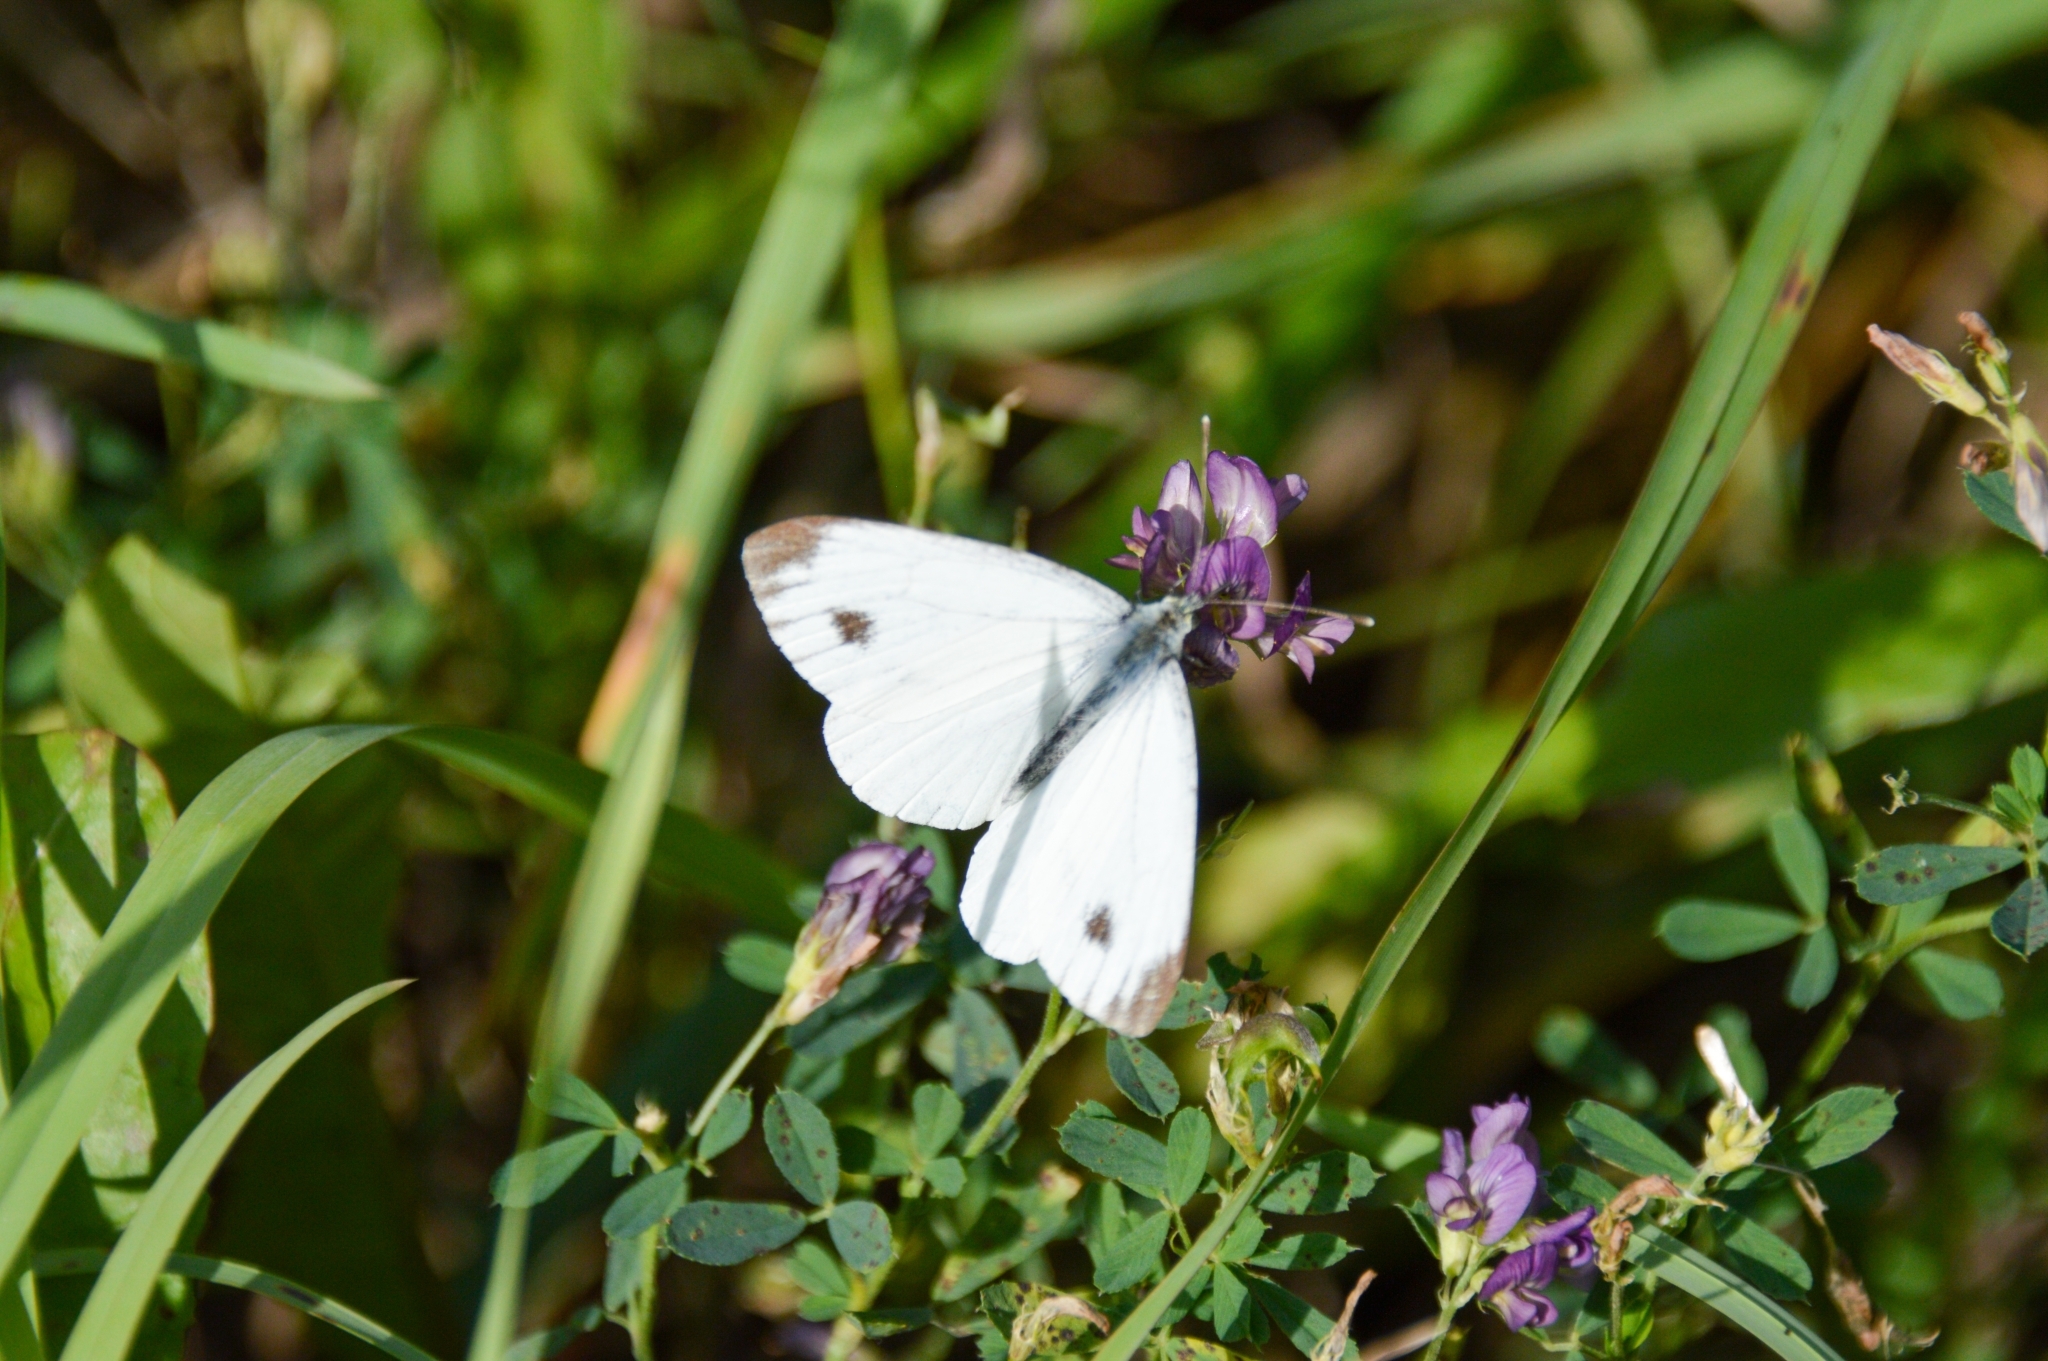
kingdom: Animalia
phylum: Arthropoda
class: Insecta
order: Lepidoptera
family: Pieridae
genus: Pieris
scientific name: Pieris napi
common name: Green-veined white
